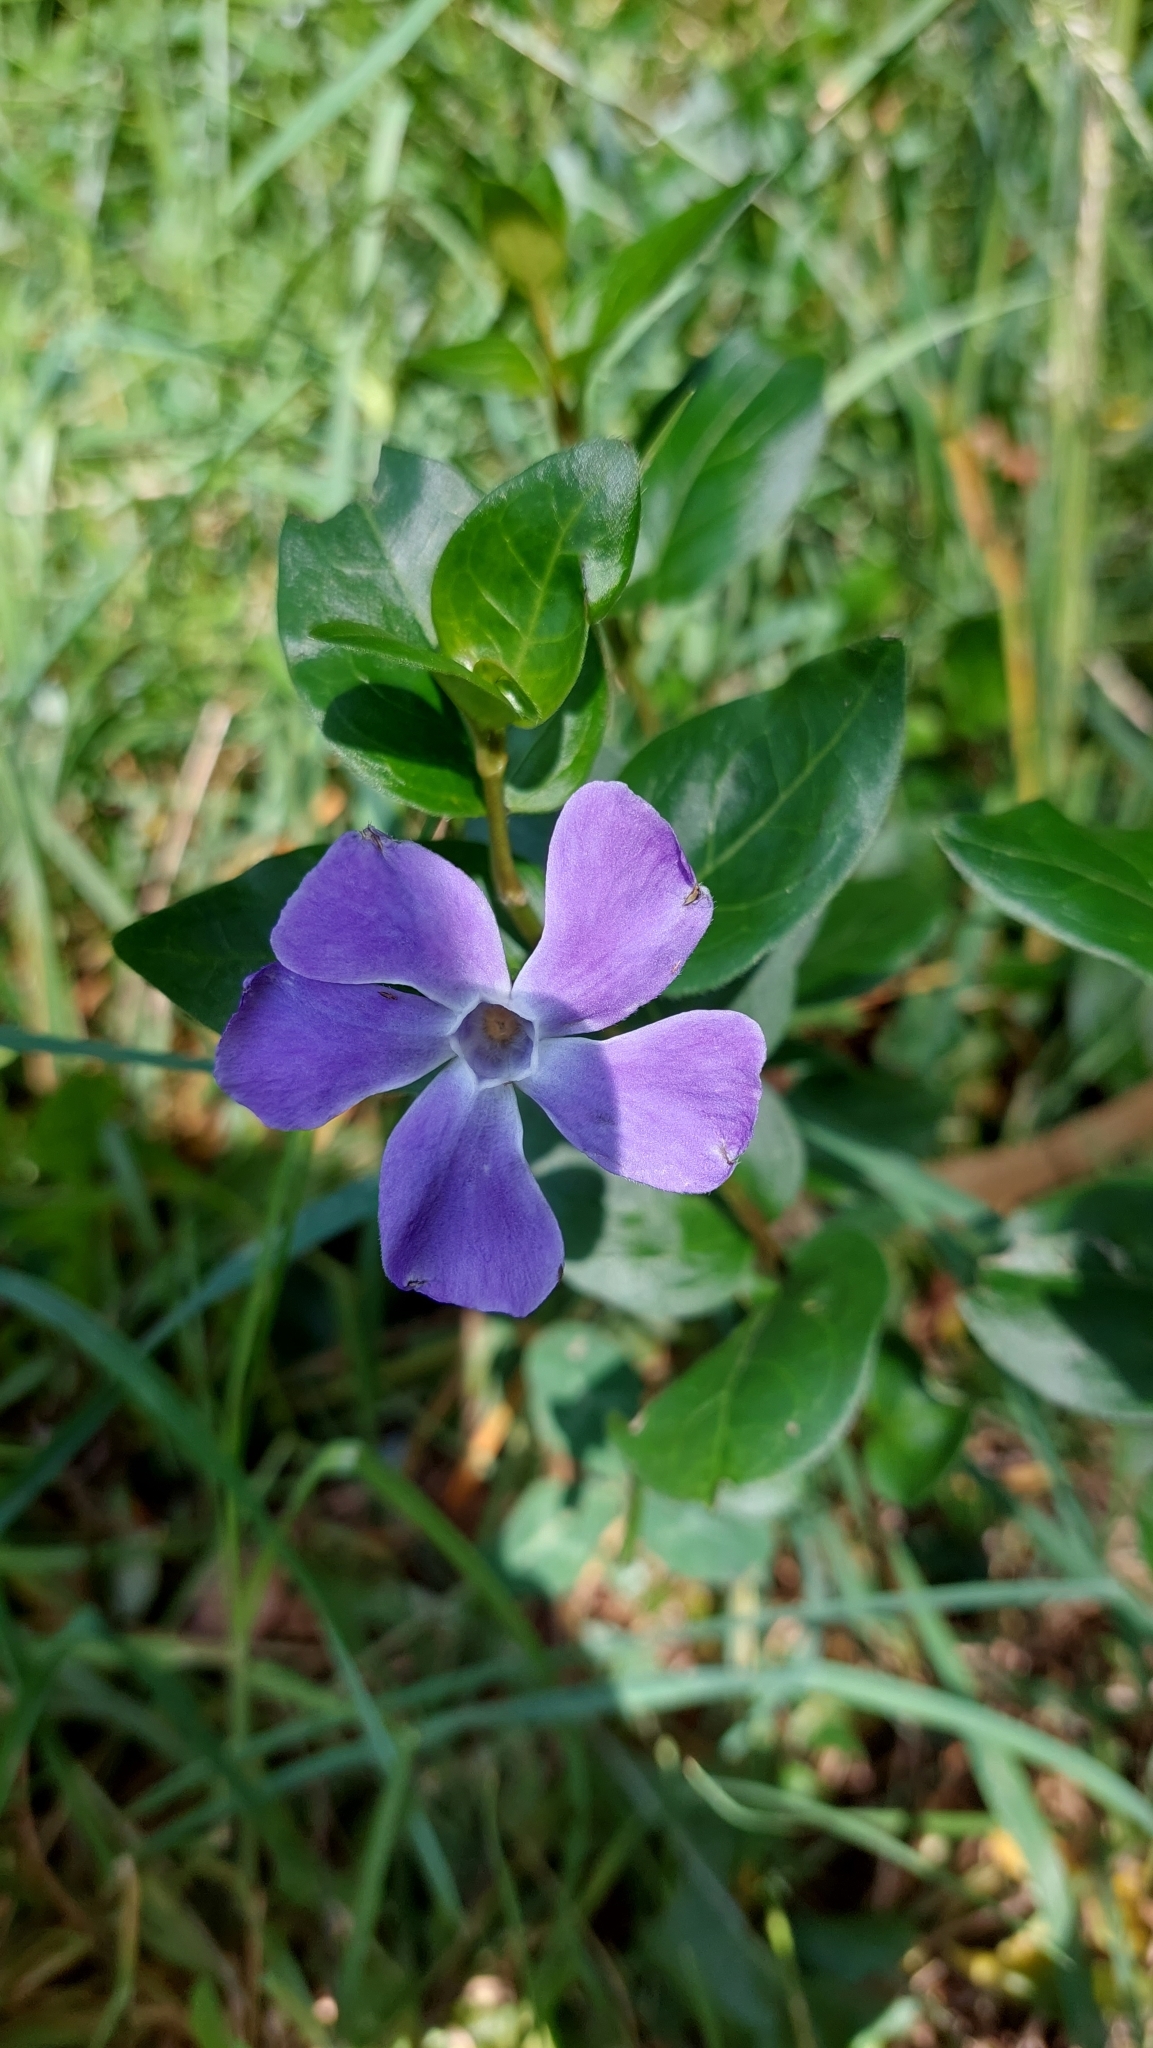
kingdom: Plantae
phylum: Tracheophyta
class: Magnoliopsida
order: Gentianales
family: Apocynaceae
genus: Vinca
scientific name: Vinca major
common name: Greater periwinkle
